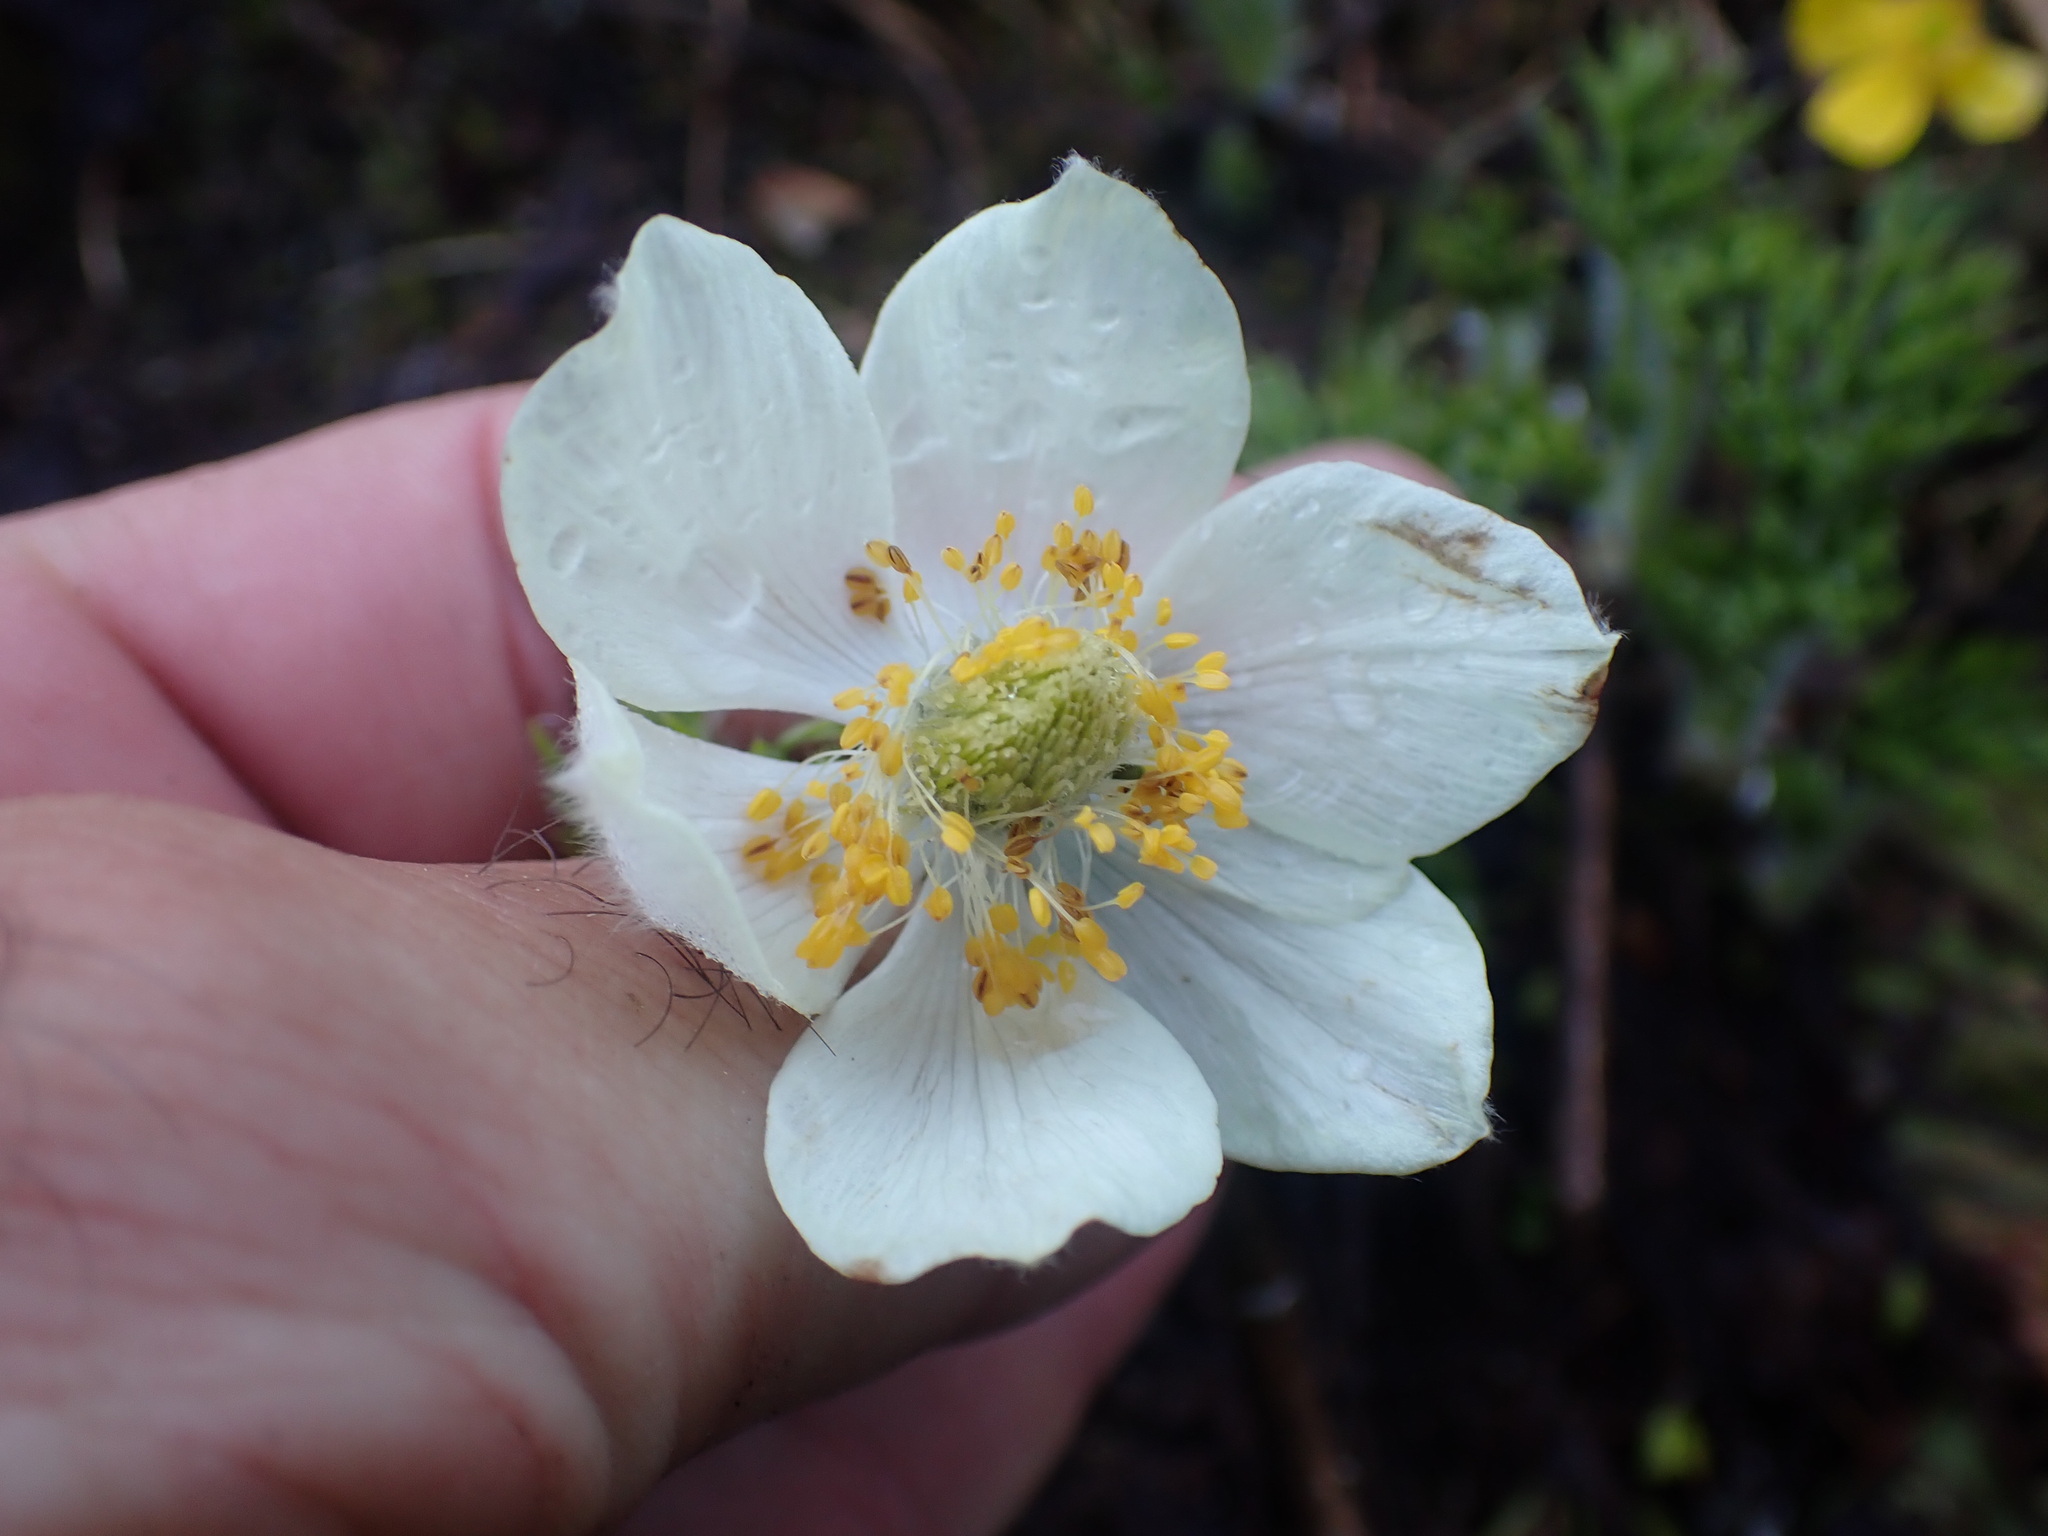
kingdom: Plantae
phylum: Tracheophyta
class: Magnoliopsida
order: Ranunculales
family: Ranunculaceae
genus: Pulsatilla
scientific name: Pulsatilla occidentalis
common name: Mountain pasqueflower
